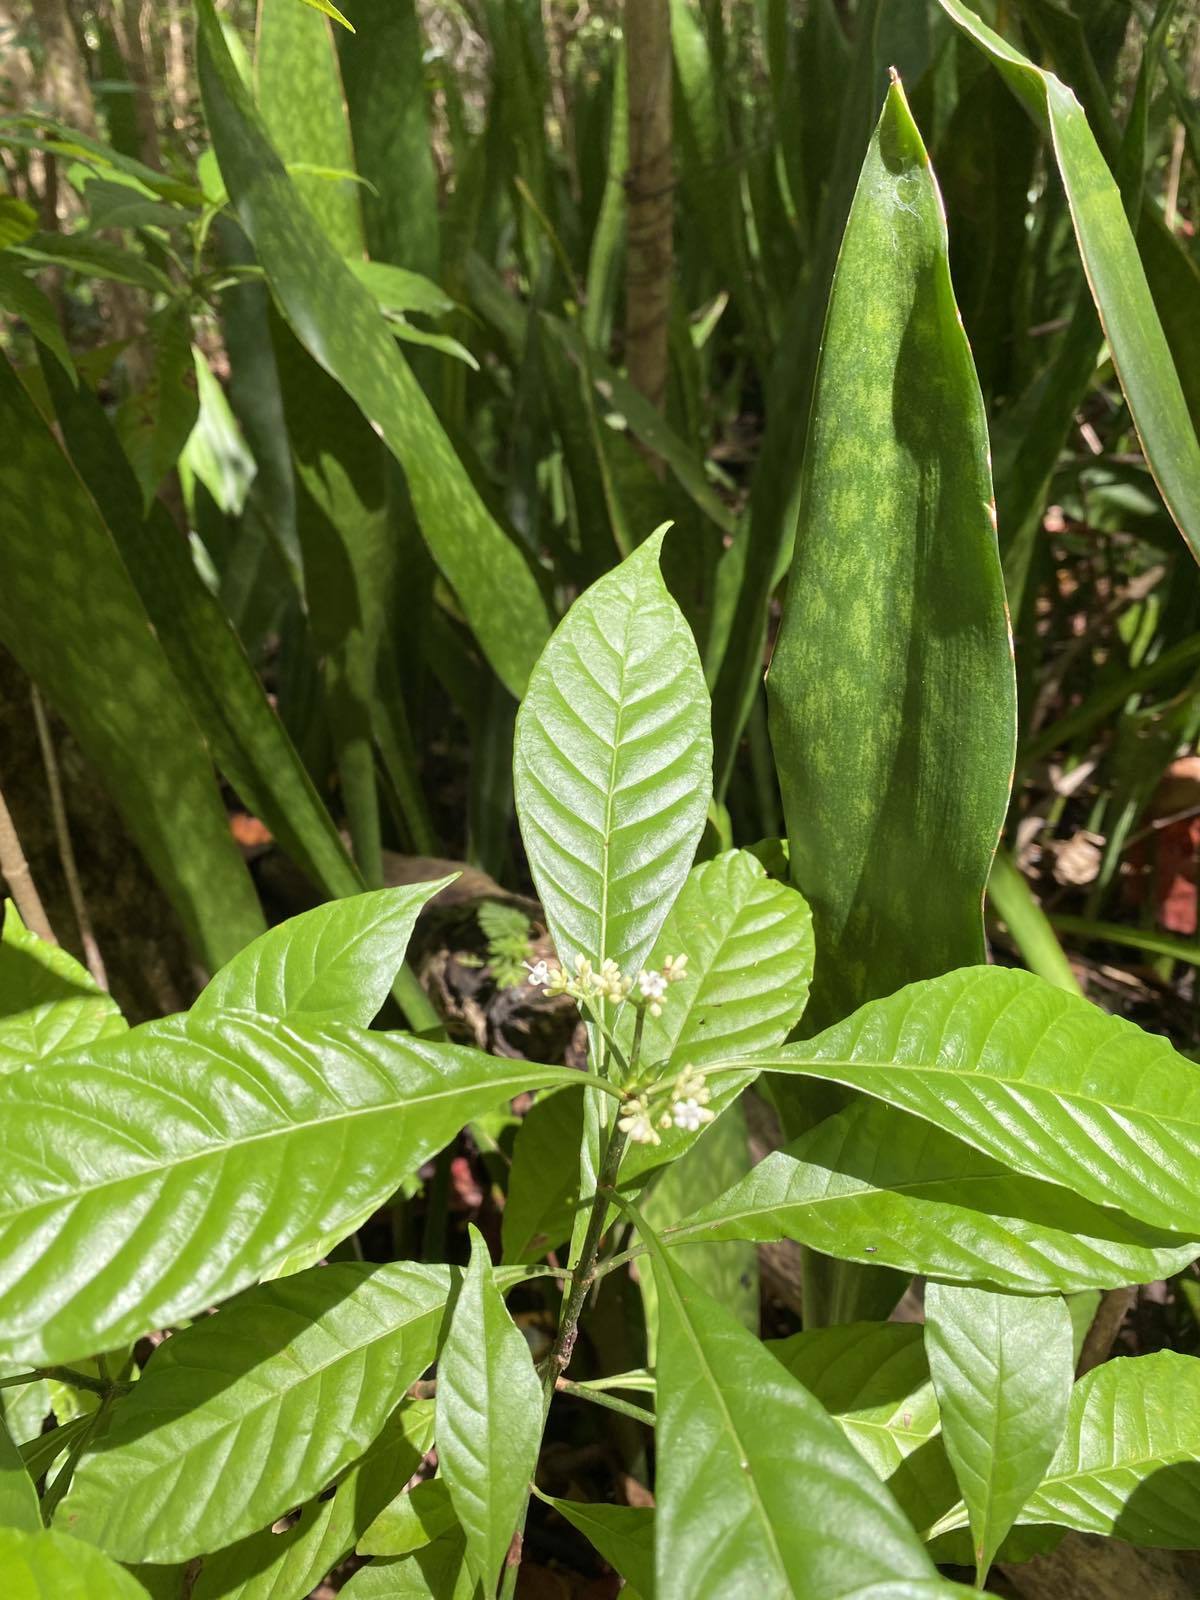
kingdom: Plantae
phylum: Tracheophyta
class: Magnoliopsida
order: Gentianales
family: Rubiaceae
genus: Psychotria
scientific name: Psychotria nervosa
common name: Bastard cankerberry
